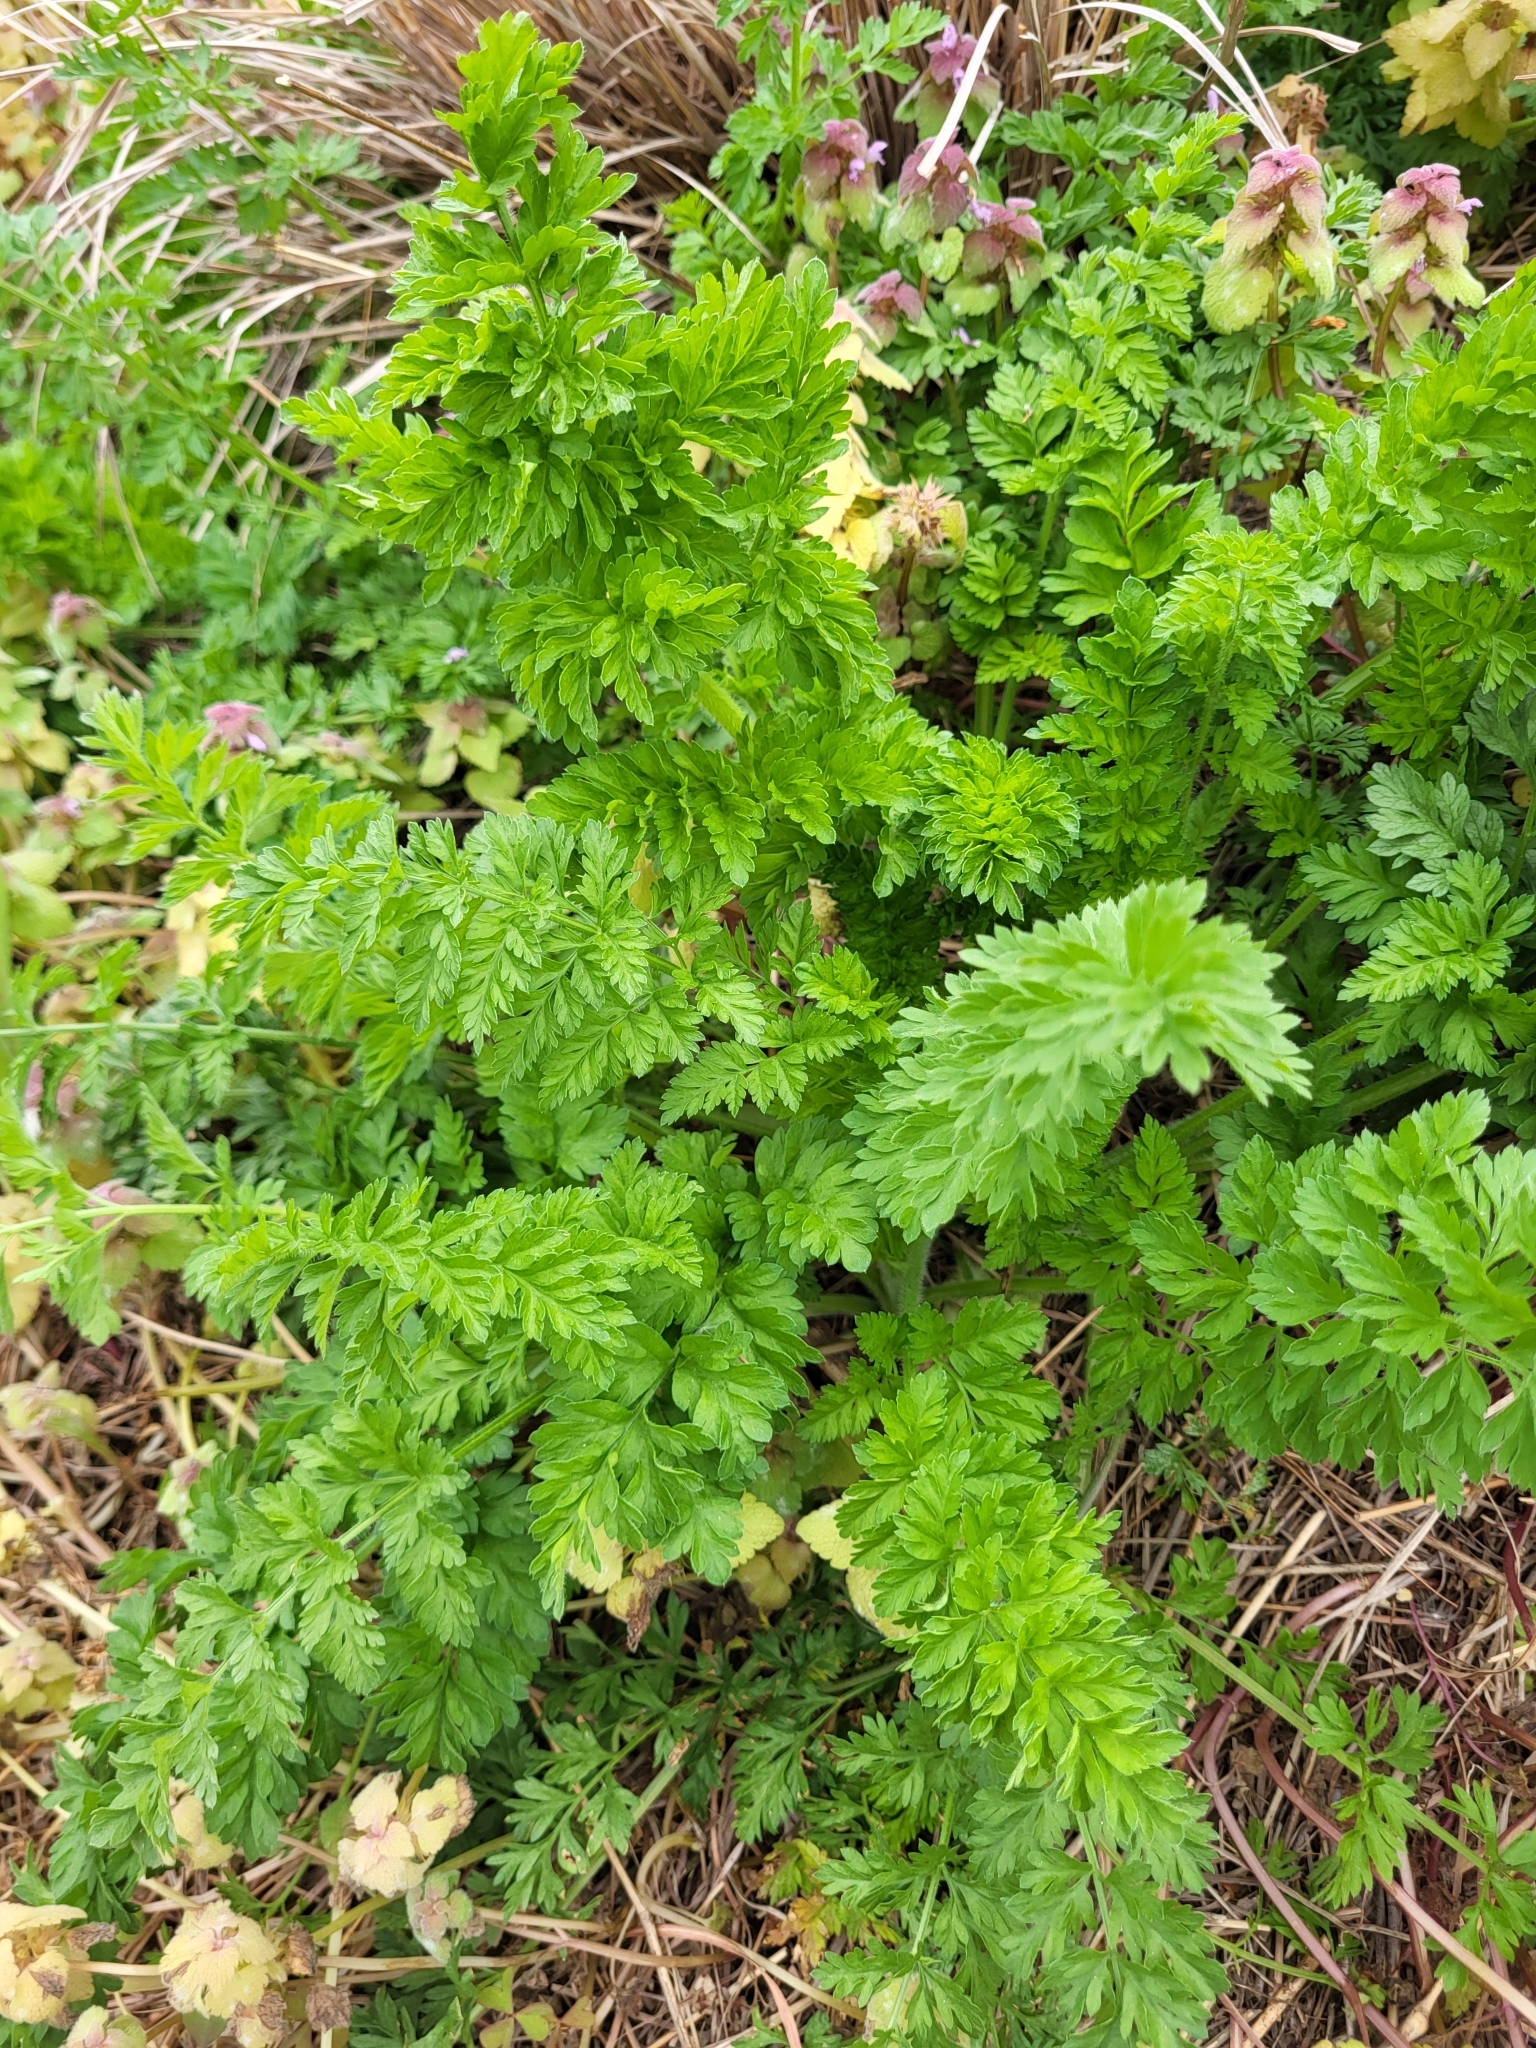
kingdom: Plantae
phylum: Tracheophyta
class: Magnoliopsida
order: Apiales
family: Apiaceae
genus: Daucus
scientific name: Daucus carota
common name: Wild carrot
